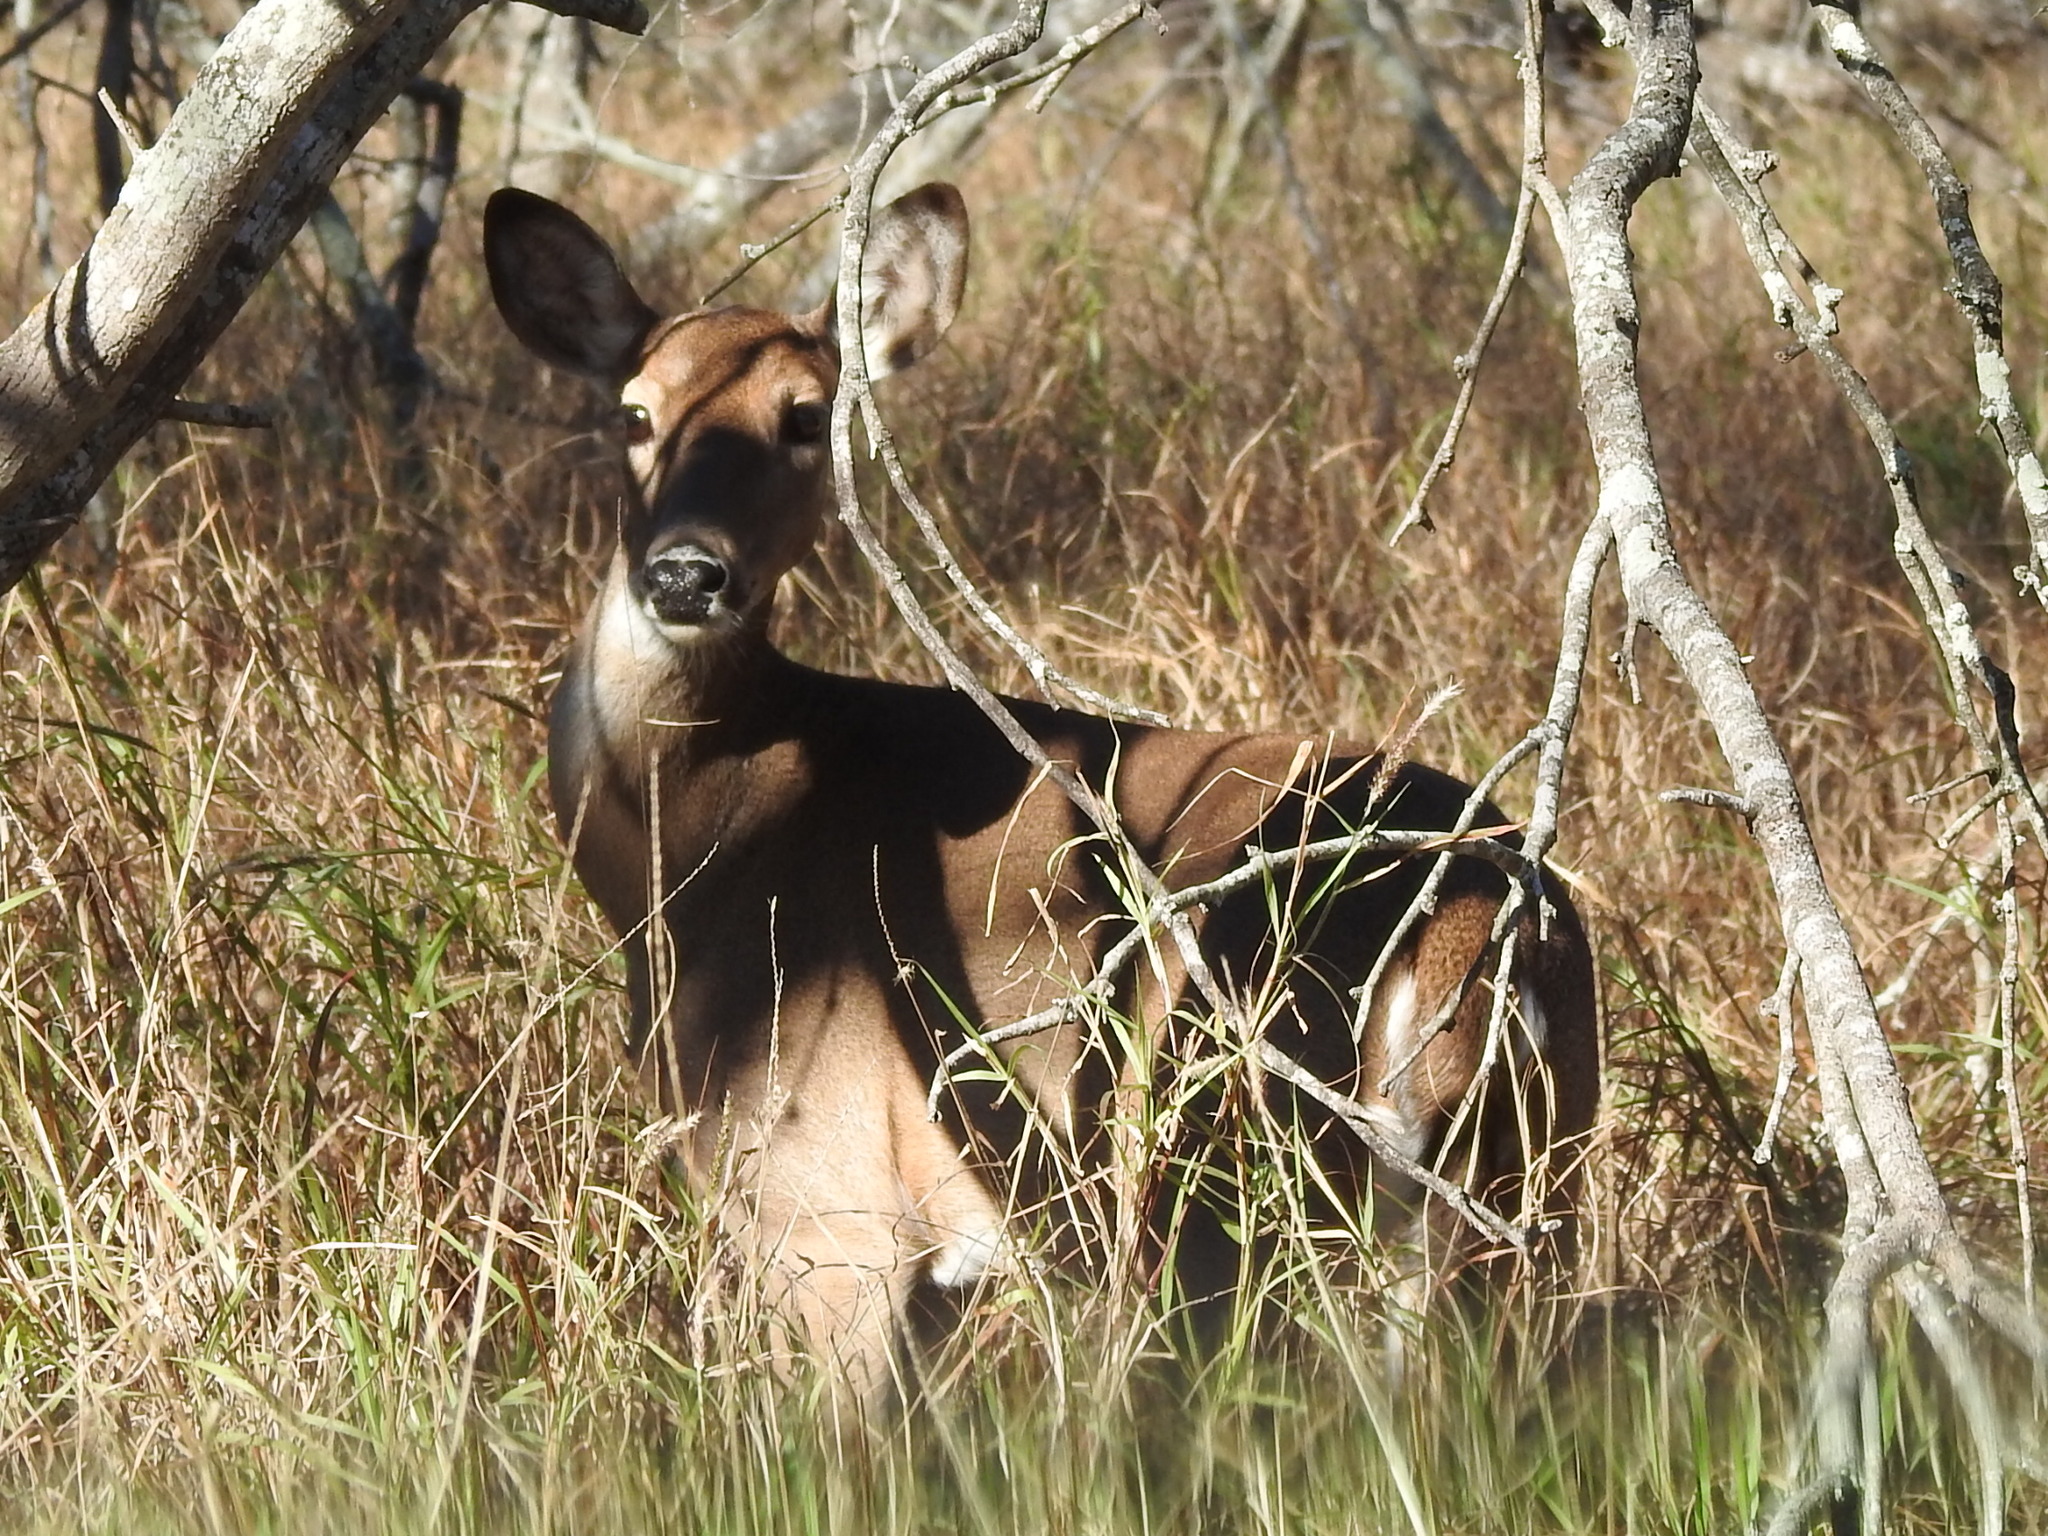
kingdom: Animalia
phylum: Chordata
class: Mammalia
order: Artiodactyla
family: Cervidae
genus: Odocoileus
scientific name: Odocoileus virginianus
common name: White-tailed deer
